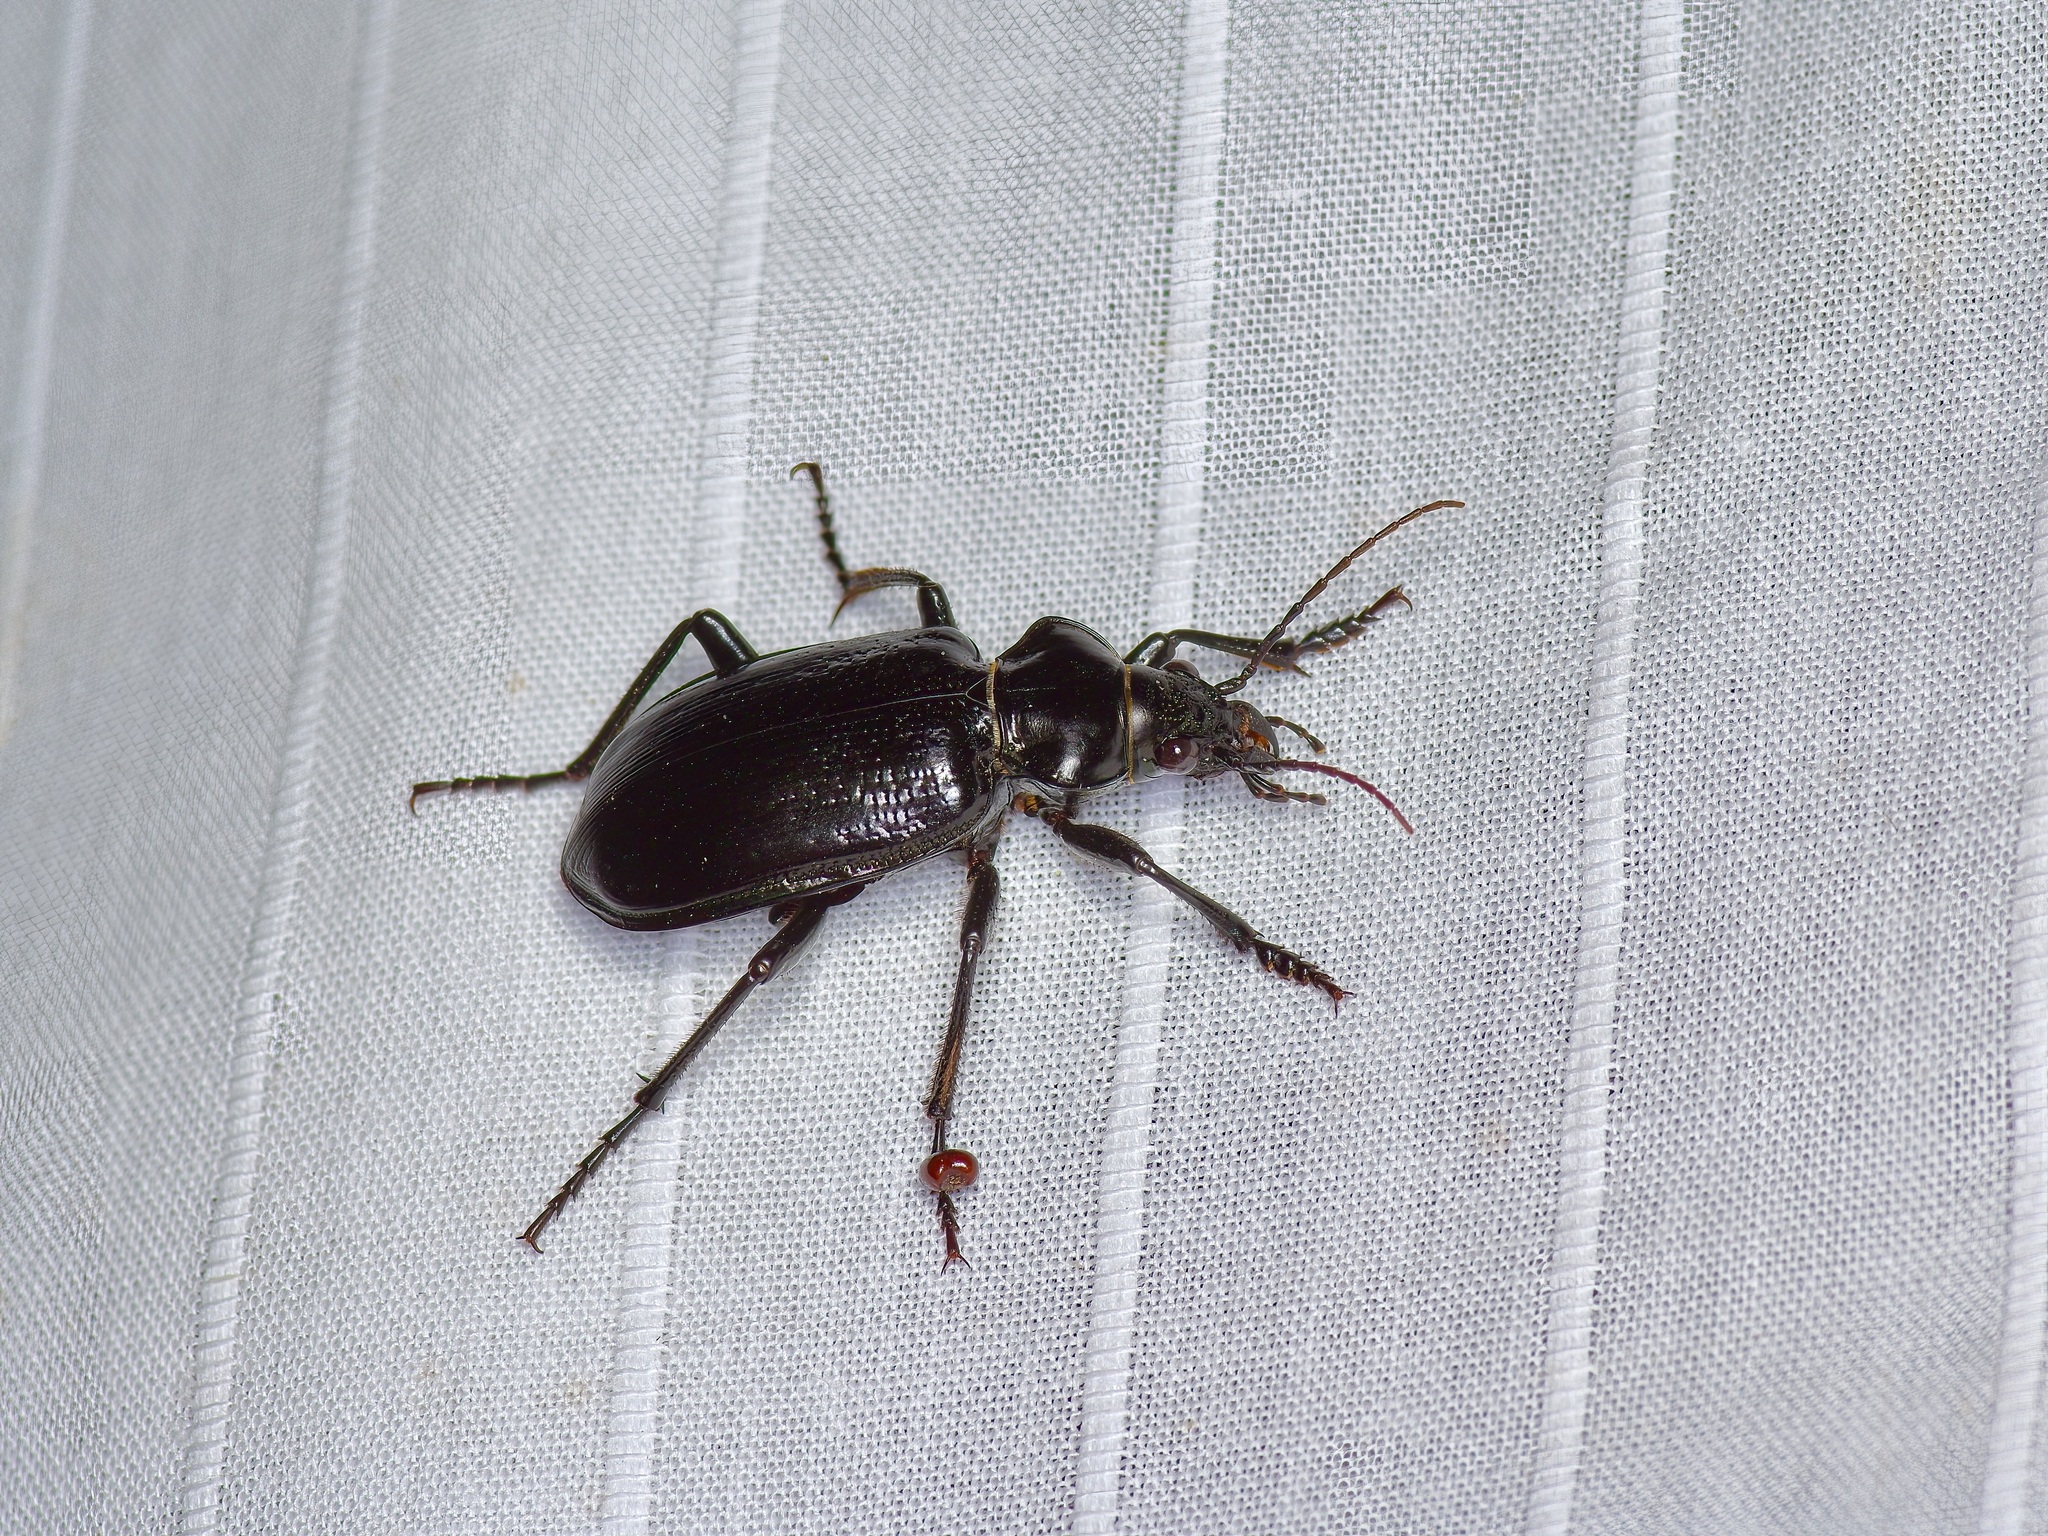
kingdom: Animalia
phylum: Arthropoda
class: Insecta
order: Coleoptera
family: Carabidae
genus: Calosoma
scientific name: Calosoma marginale
